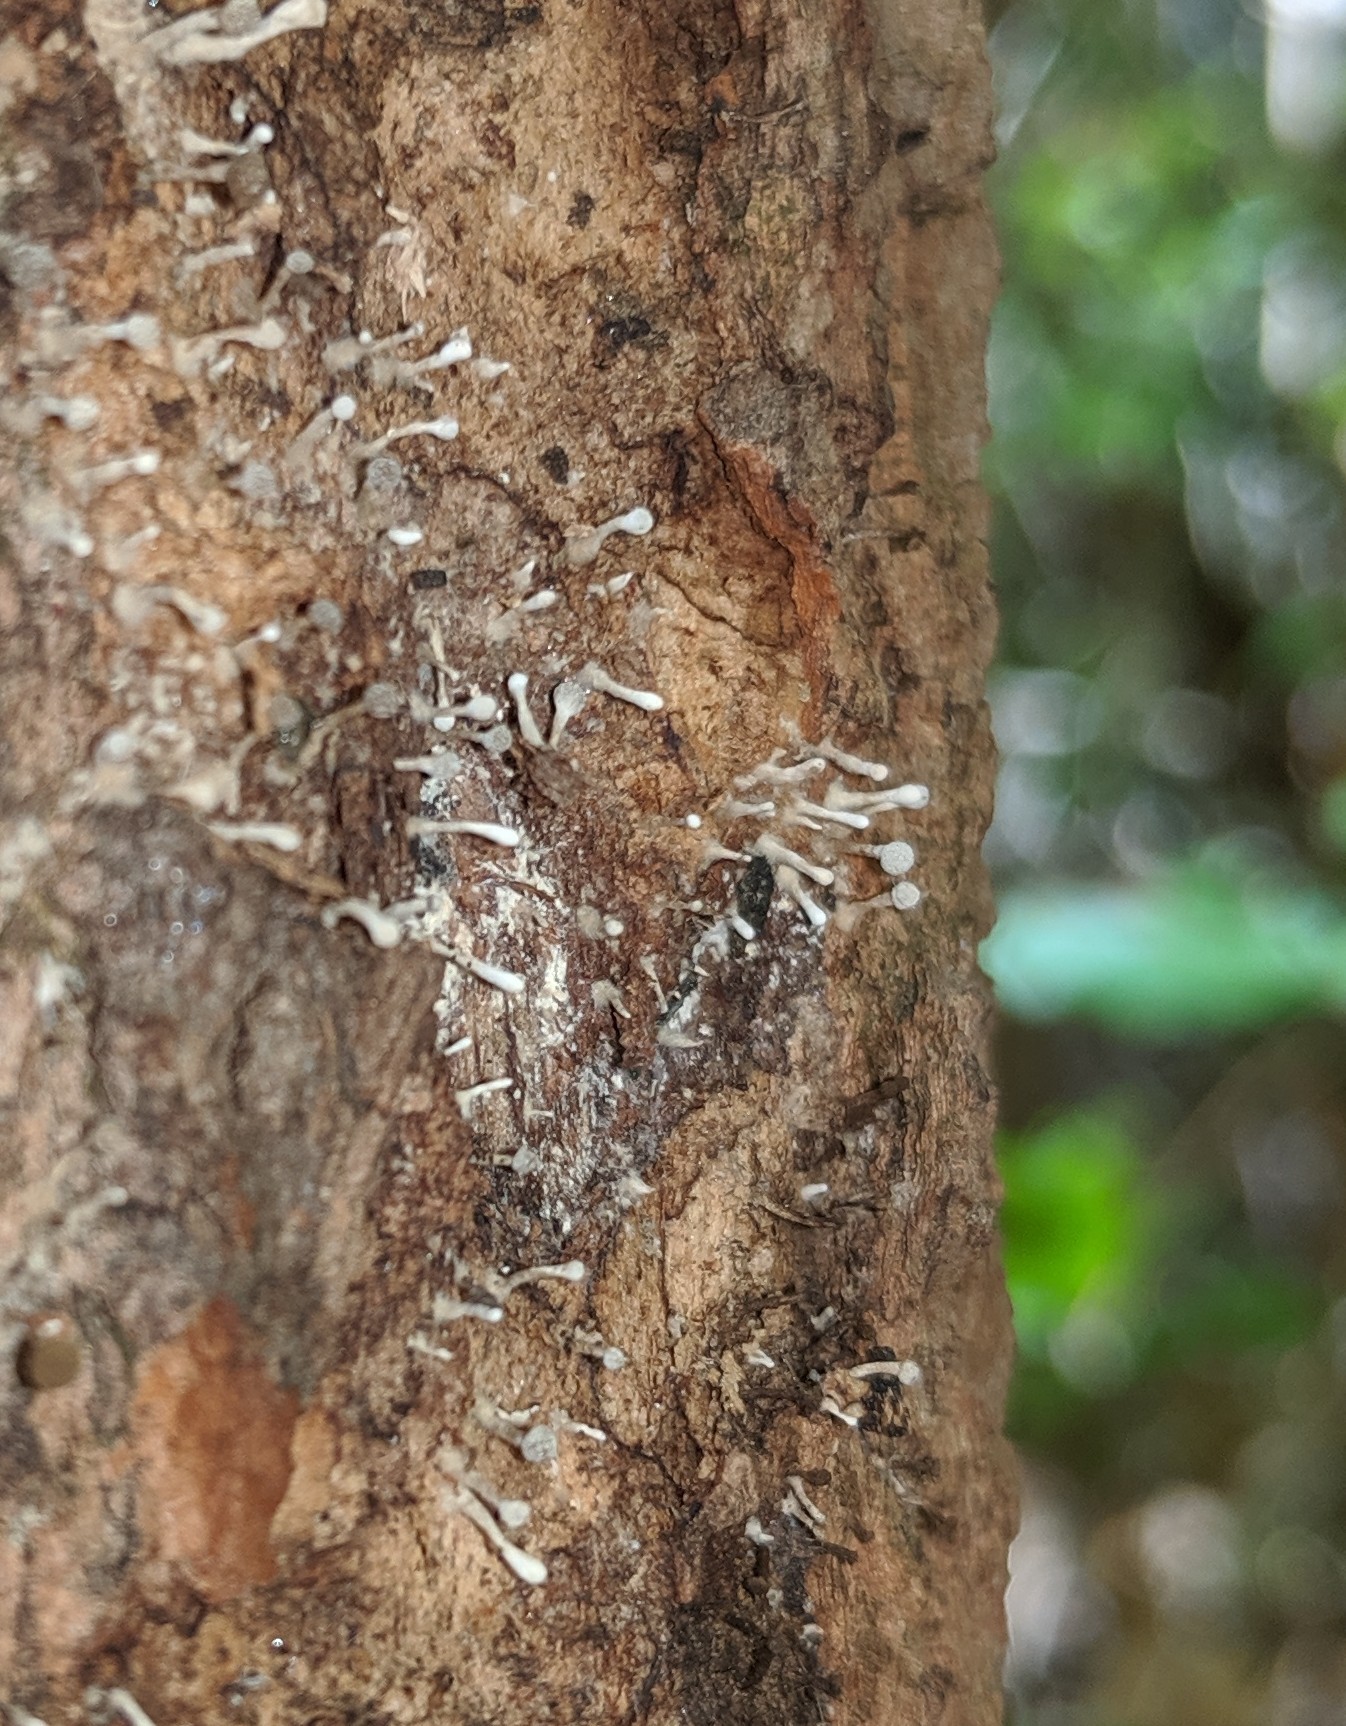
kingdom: Fungi
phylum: Basidiomycota
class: Atractiellomycetes
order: Atractiellales
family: Phleogenaceae
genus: Phleogena
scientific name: Phleogena faginea
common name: Fenugreek stalkball
